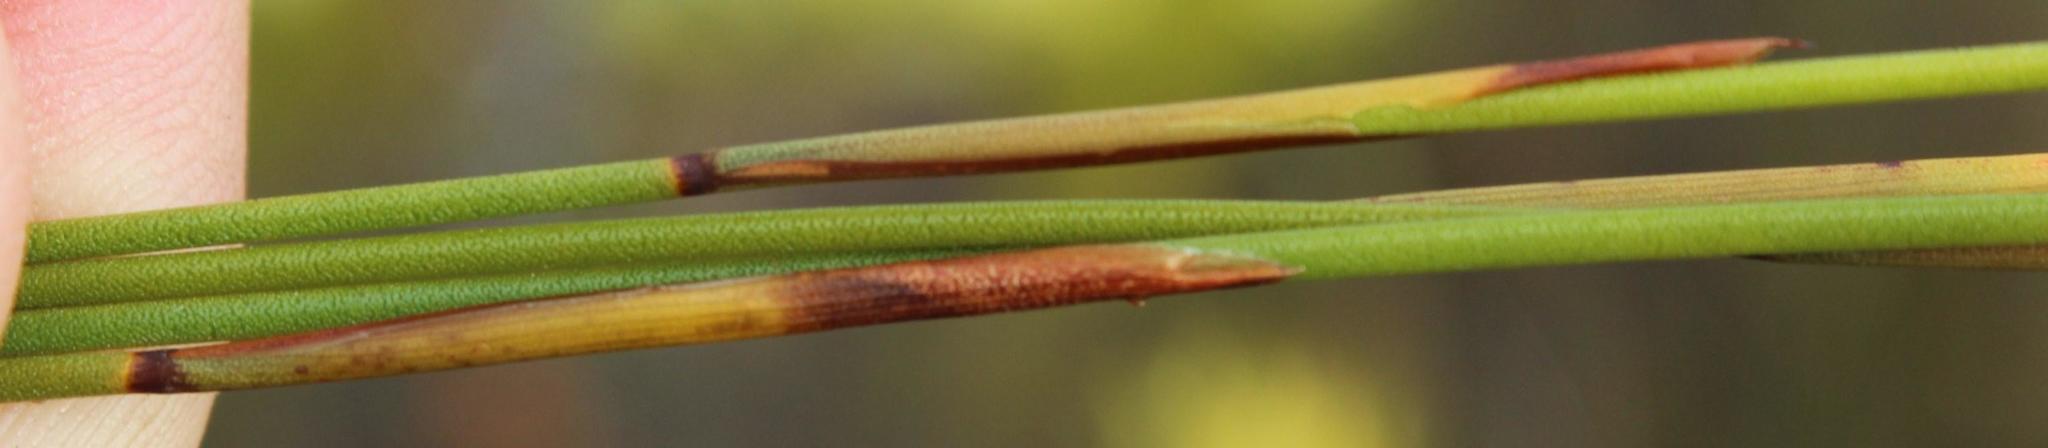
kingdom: Plantae
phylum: Tracheophyta
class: Liliopsida
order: Poales
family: Restionaceae
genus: Staberoha
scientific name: Staberoha cernua
